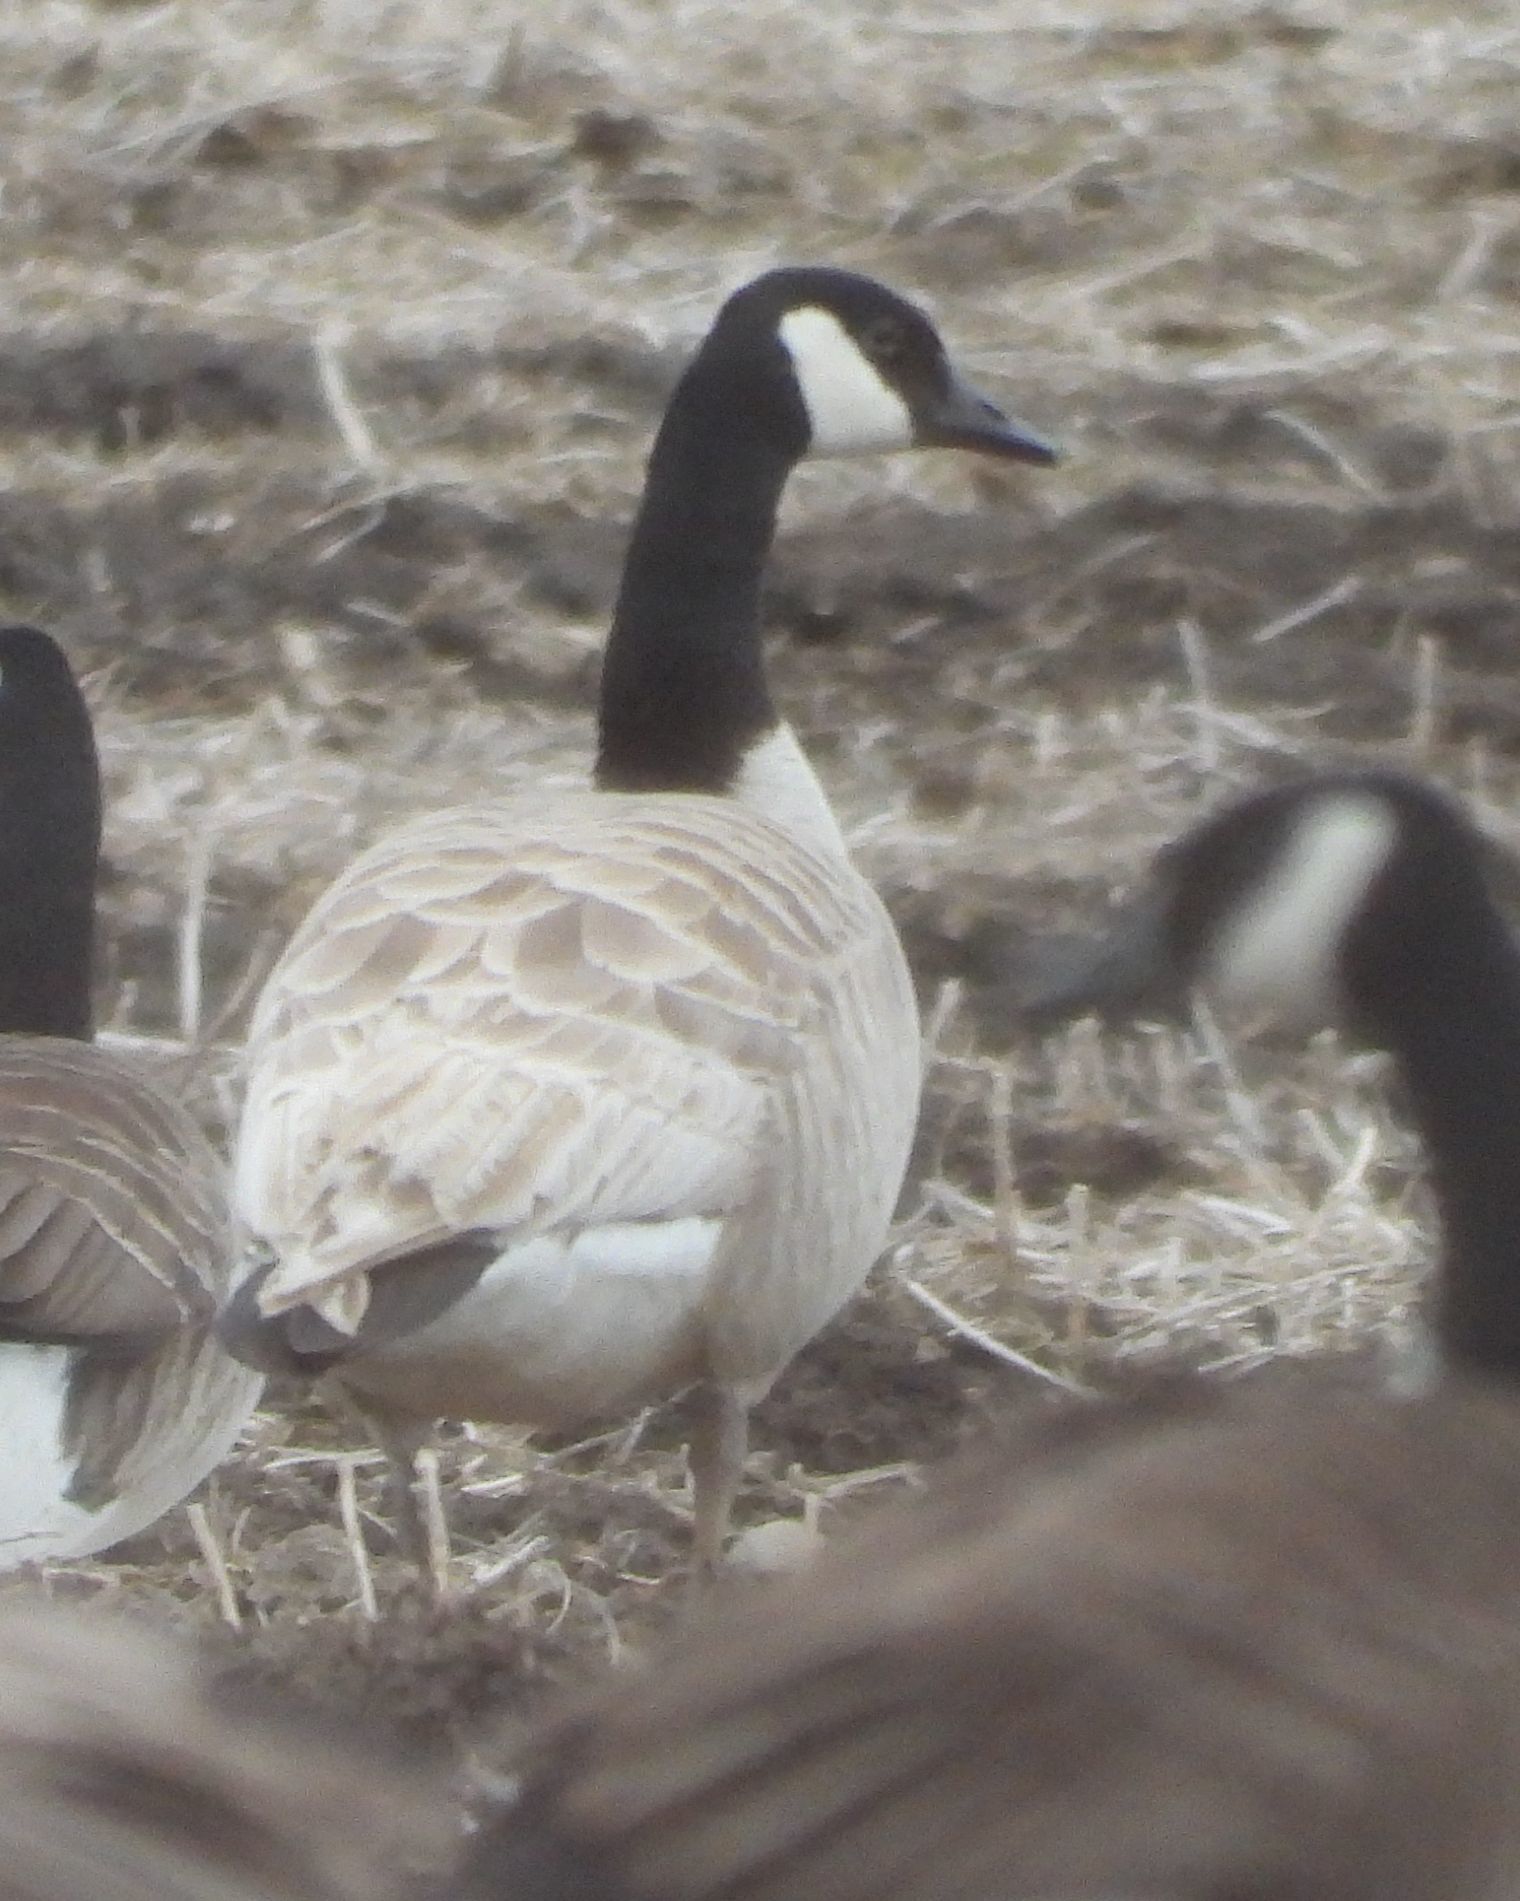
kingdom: Animalia
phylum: Chordata
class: Aves
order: Anseriformes
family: Anatidae
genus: Branta
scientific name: Branta canadensis
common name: Canada goose
